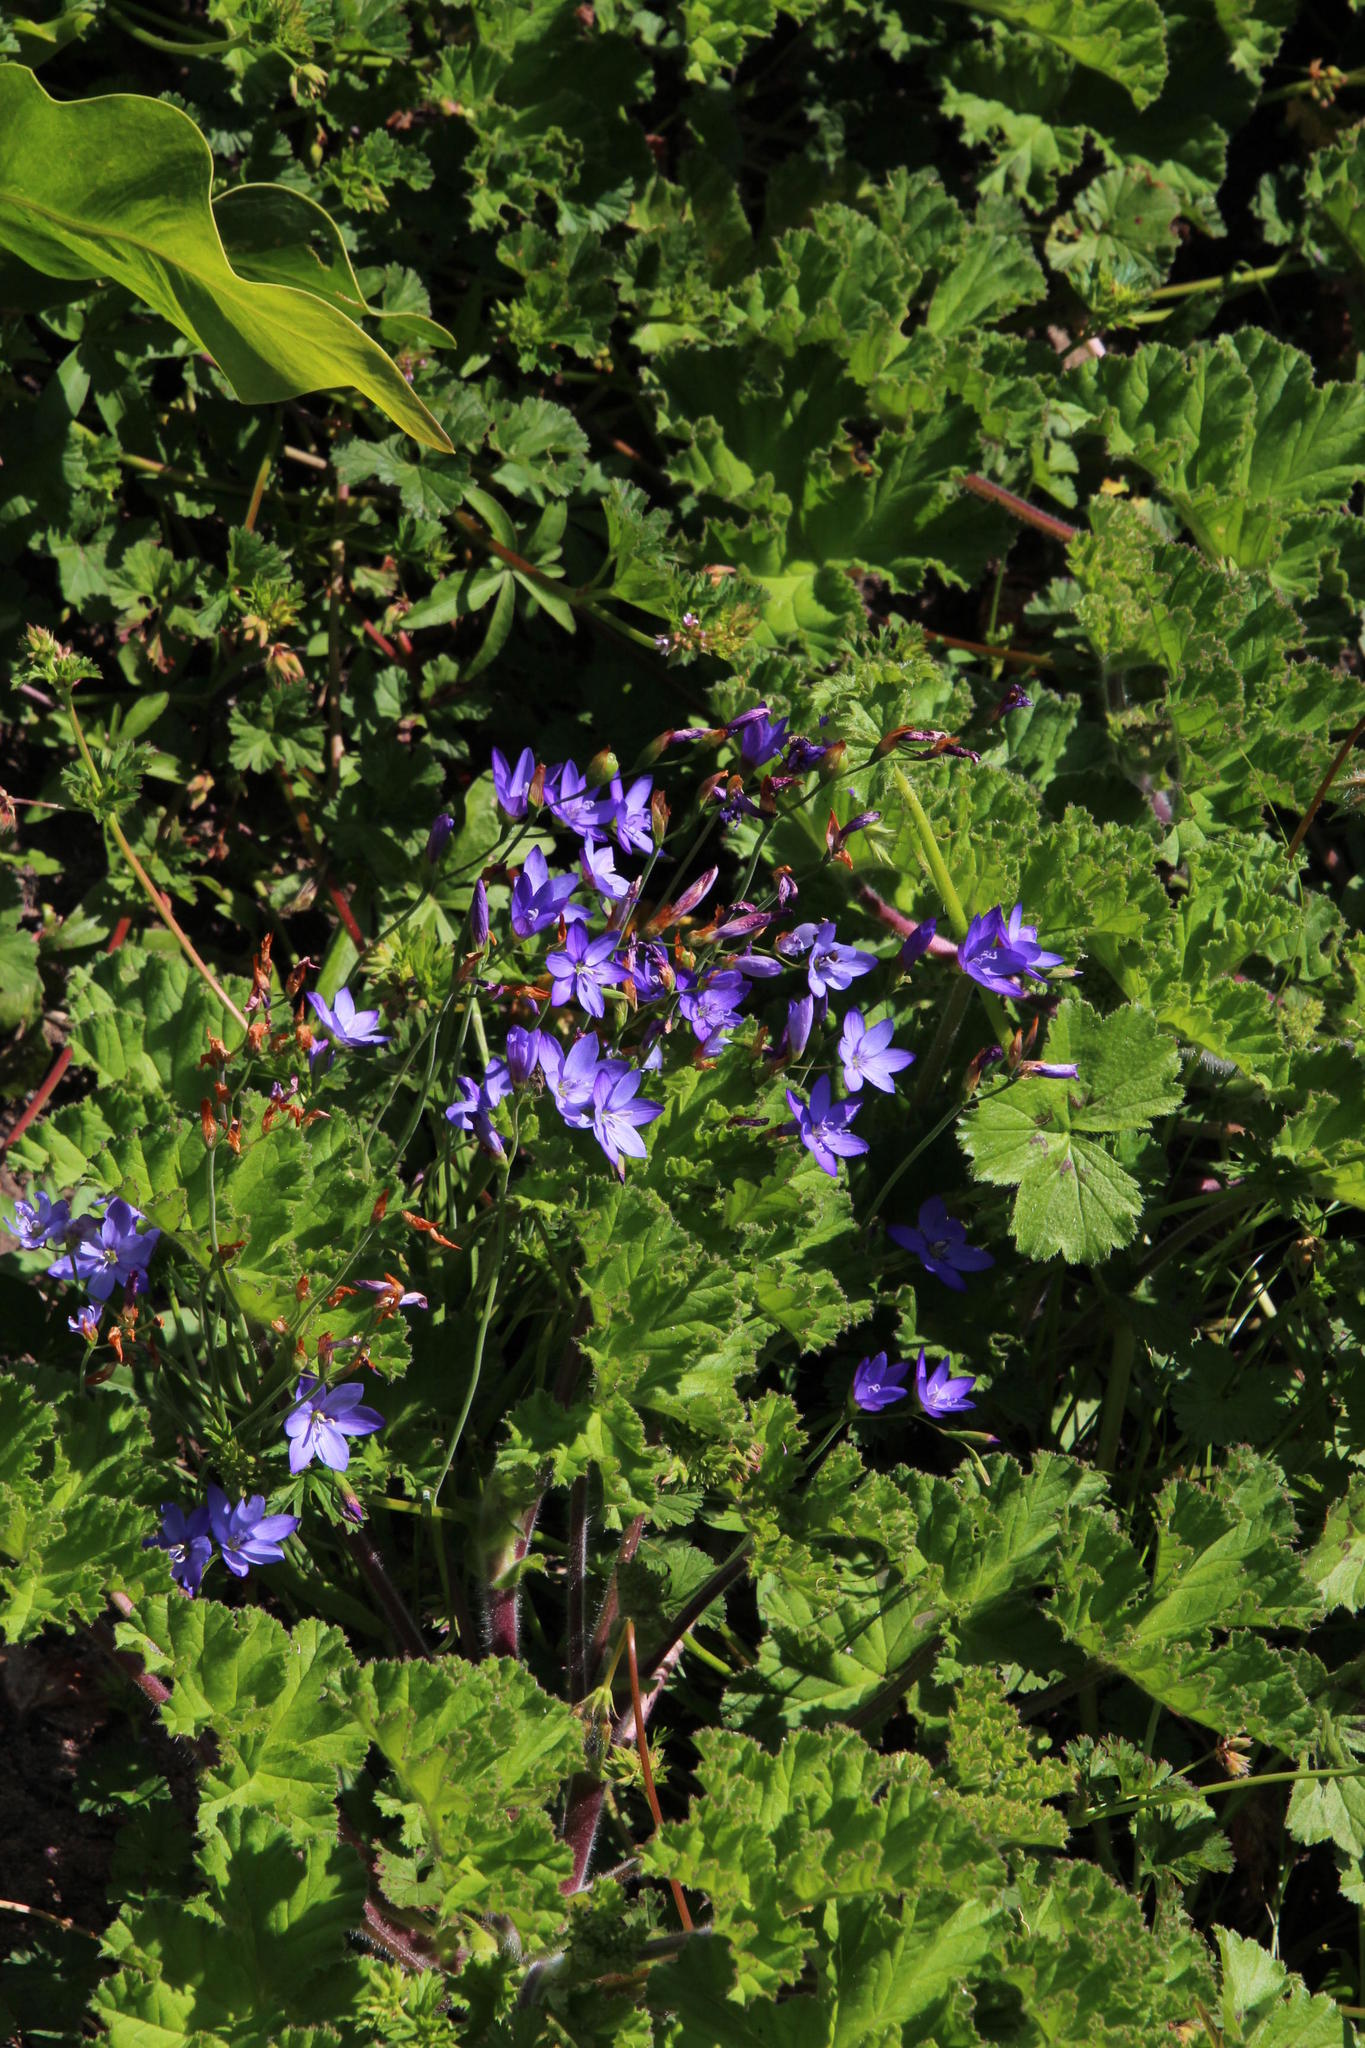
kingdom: Plantae
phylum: Tracheophyta
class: Liliopsida
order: Asparagales
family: Iridaceae
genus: Geissorhiza
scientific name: Geissorhiza aspera
